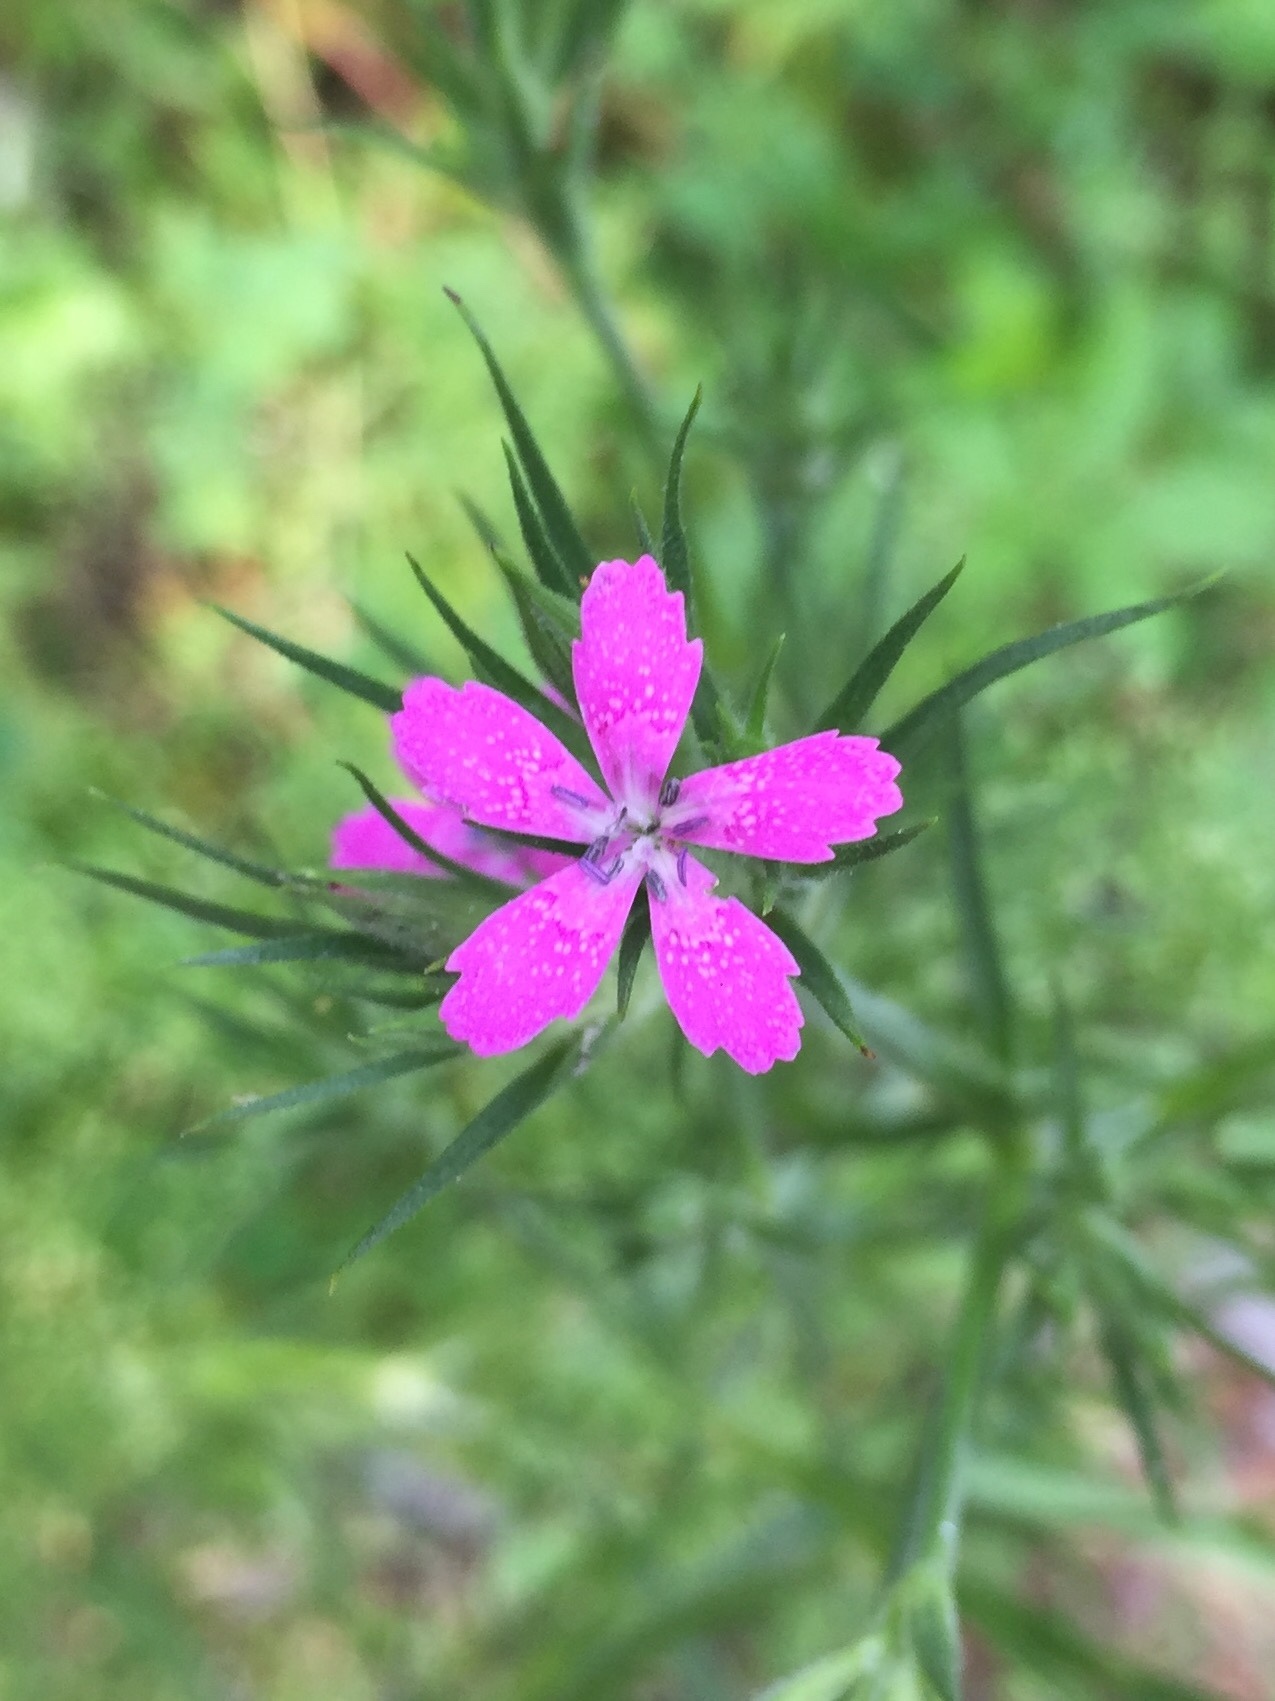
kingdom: Plantae
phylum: Tracheophyta
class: Magnoliopsida
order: Caryophyllales
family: Caryophyllaceae
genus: Dianthus
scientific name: Dianthus armeria
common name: Deptford pink
